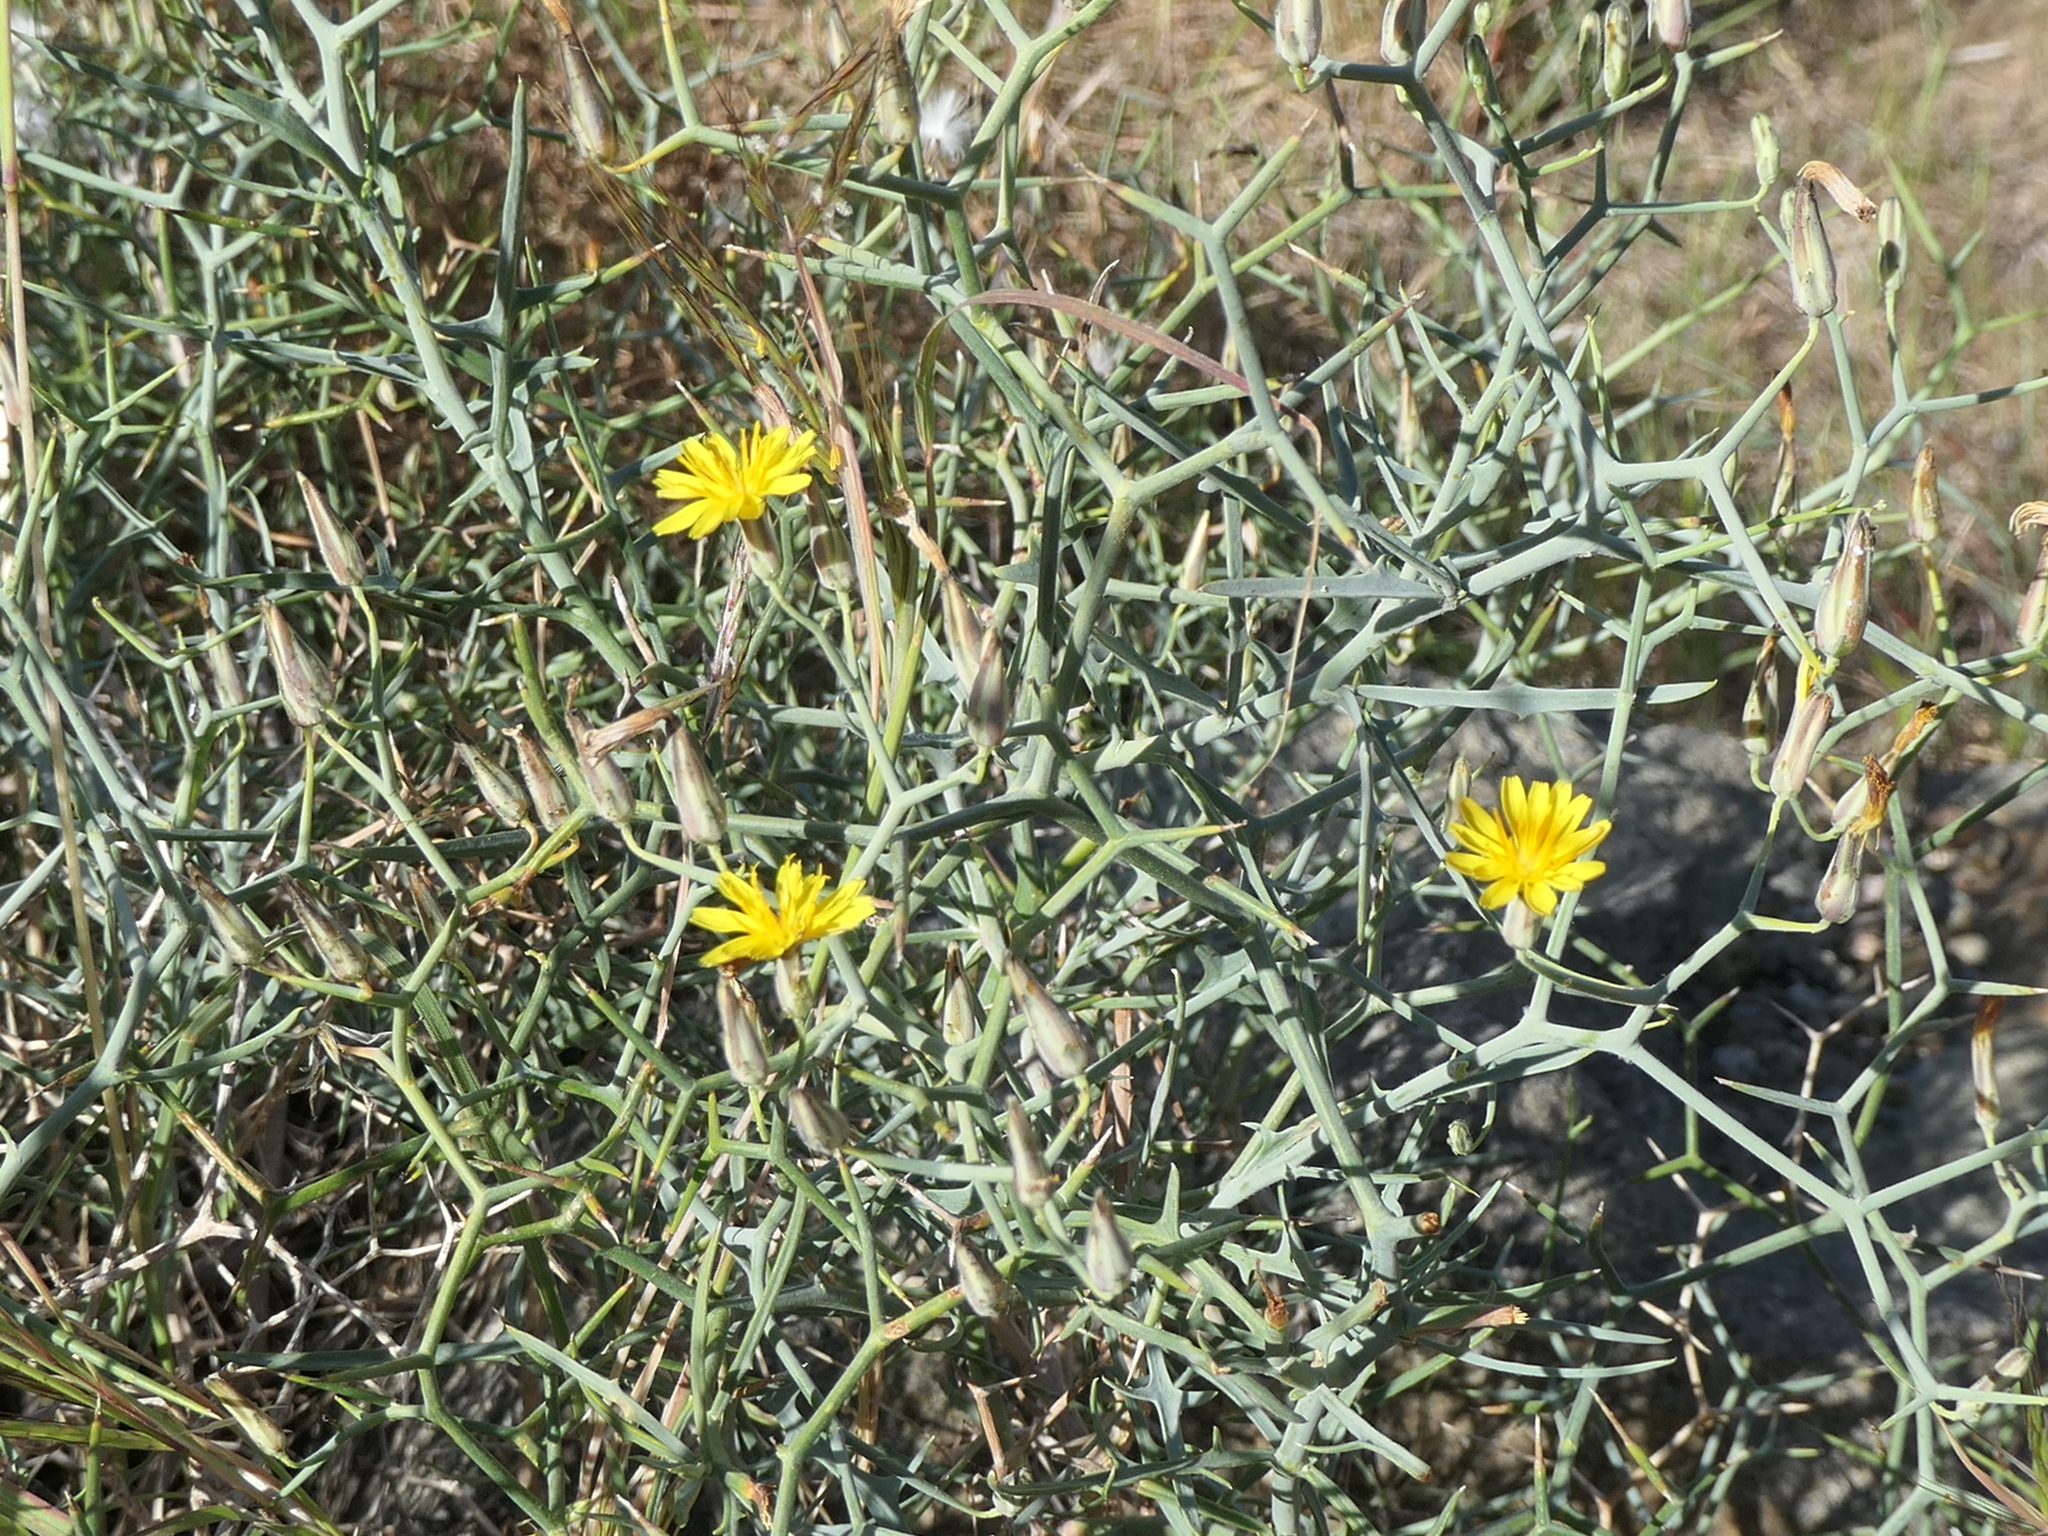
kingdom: Plantae
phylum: Tracheophyta
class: Magnoliopsida
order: Asterales
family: Asteraceae
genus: Launaea
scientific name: Launaea arborescens
